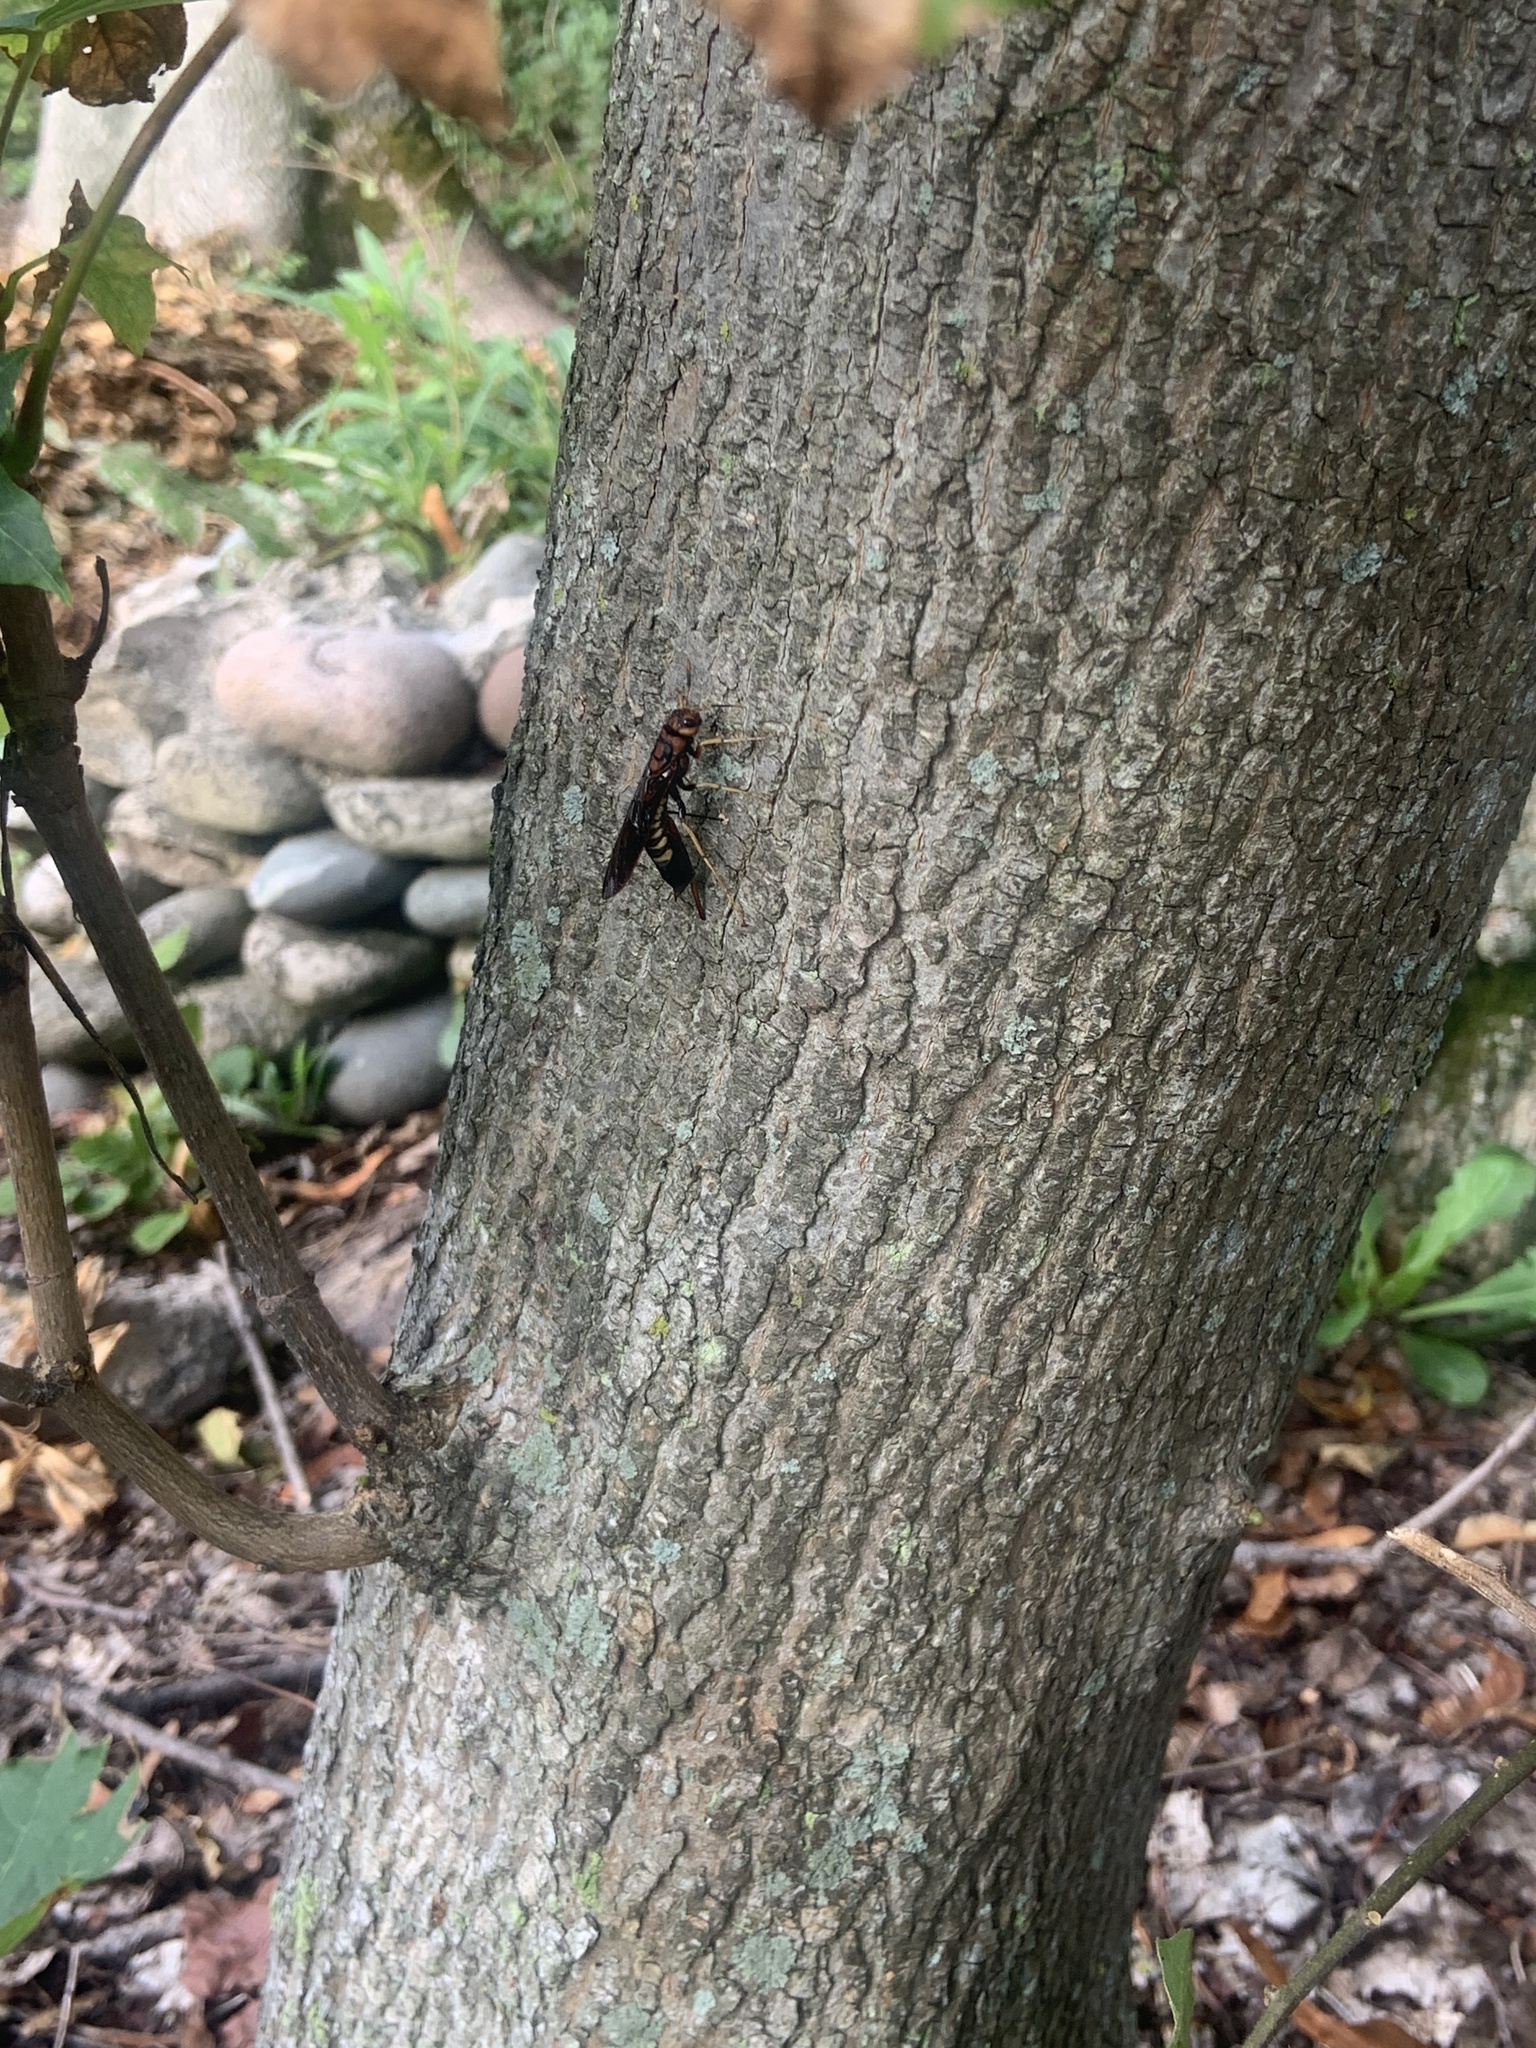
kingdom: Animalia
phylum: Arthropoda
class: Insecta
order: Hymenoptera
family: Siricidae
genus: Tremex
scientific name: Tremex columba
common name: Wasp
